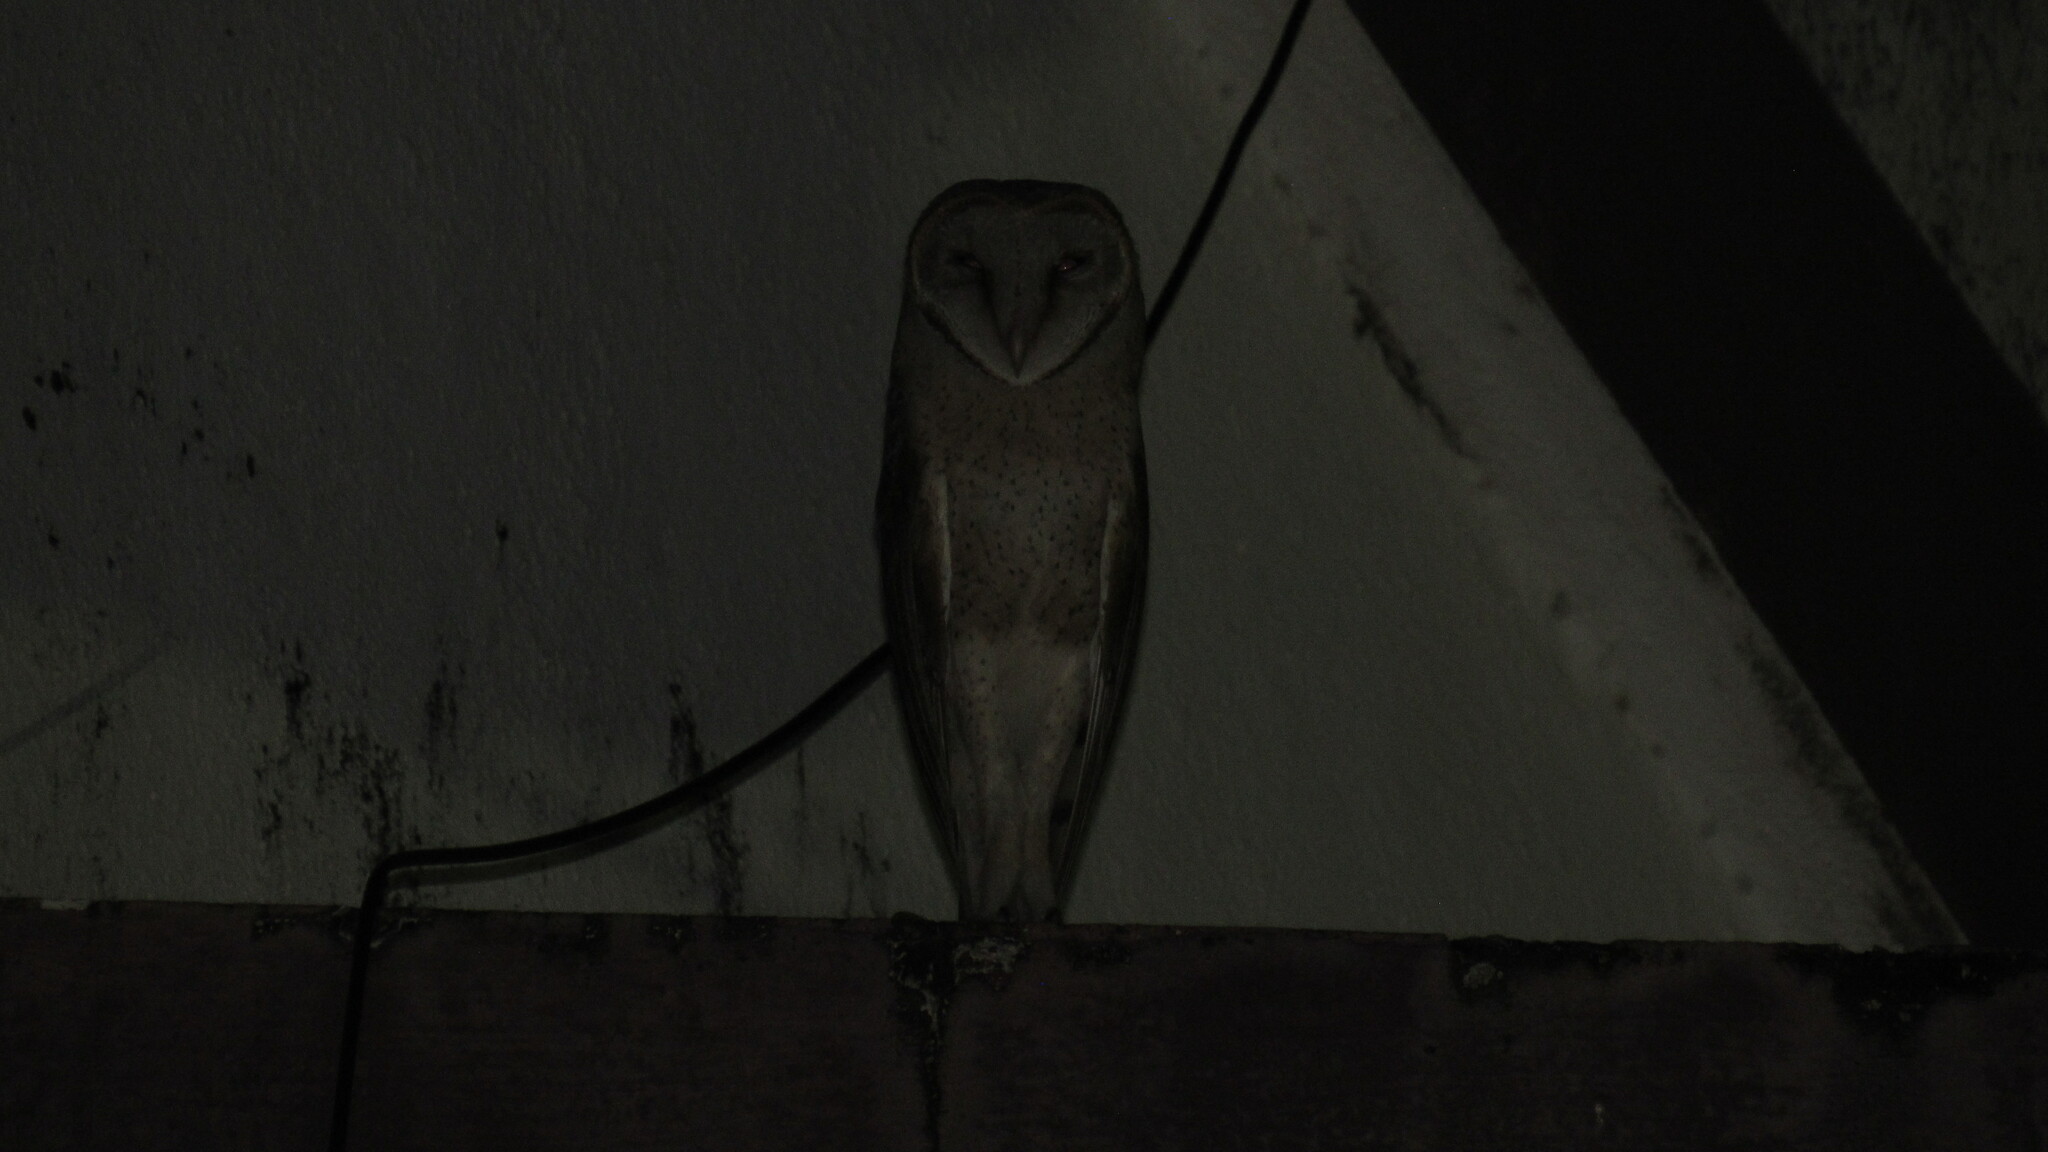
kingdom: Animalia
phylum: Chordata
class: Aves
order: Strigiformes
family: Tytonidae
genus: Tyto
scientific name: Tyto alba
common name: Barn owl
